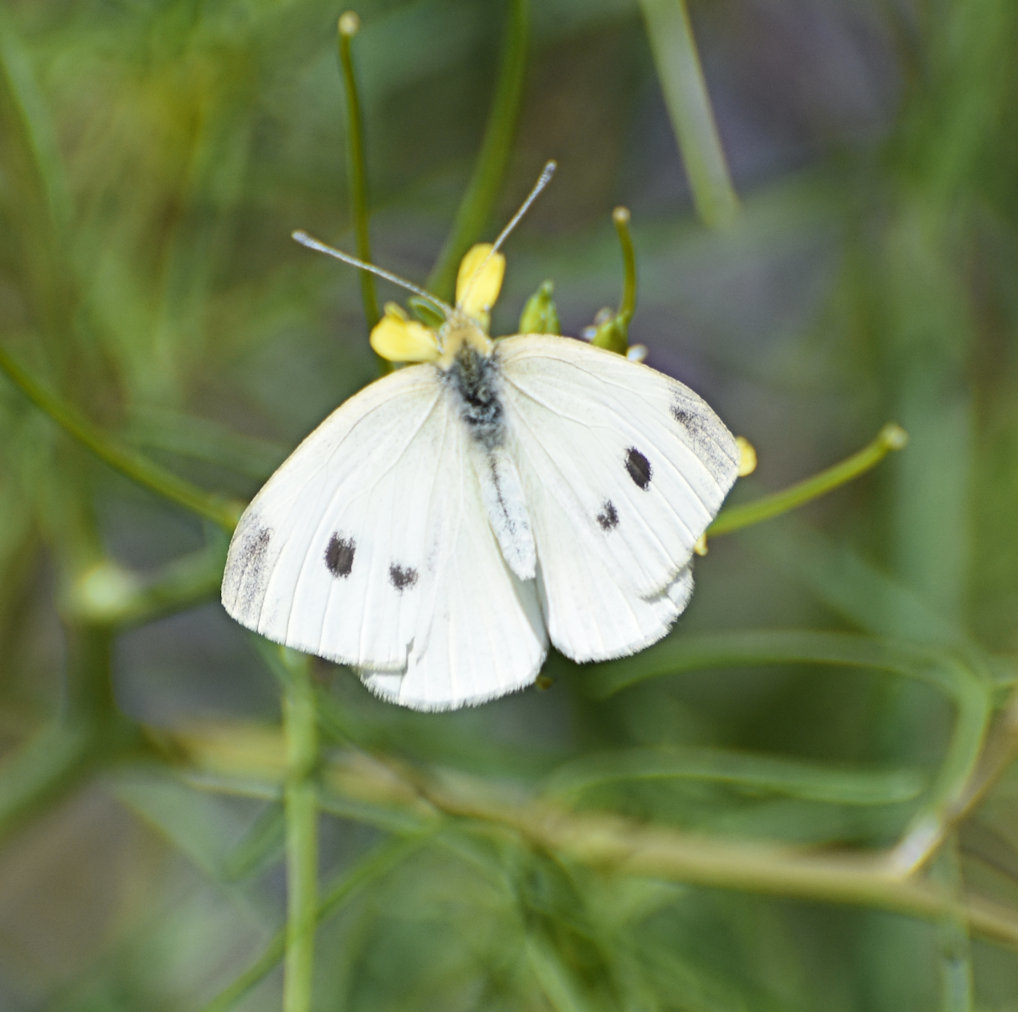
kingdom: Animalia
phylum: Arthropoda
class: Insecta
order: Lepidoptera
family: Pieridae
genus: Pieris
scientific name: Pieris rapae
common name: Small white
